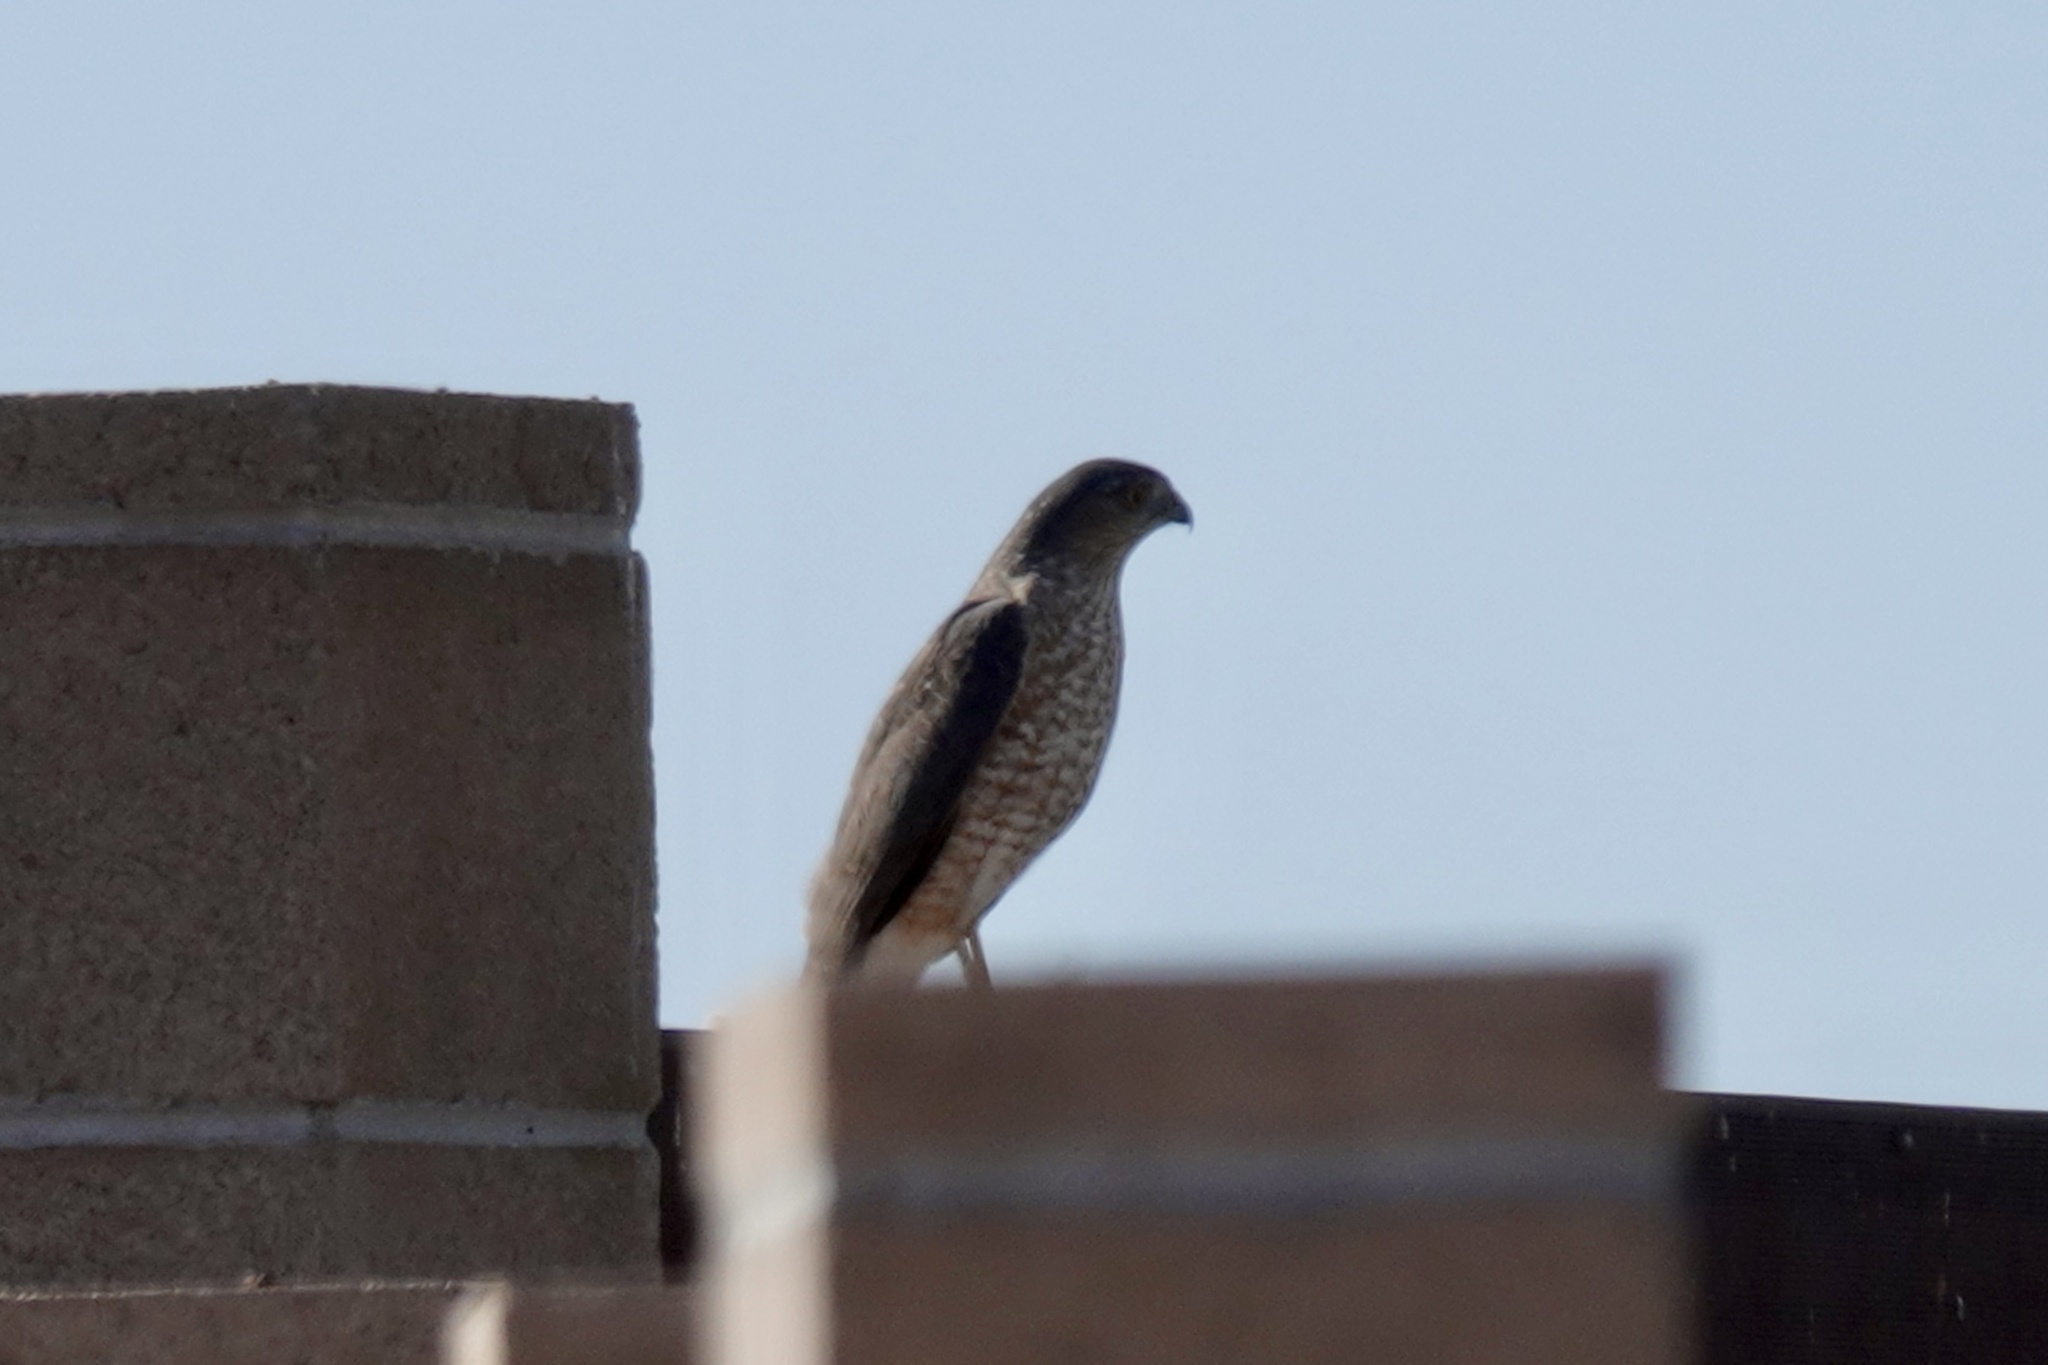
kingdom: Animalia
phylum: Chordata
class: Aves
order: Accipitriformes
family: Accipitridae
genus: Accipiter
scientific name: Accipiter cooperii
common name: Cooper's hawk
